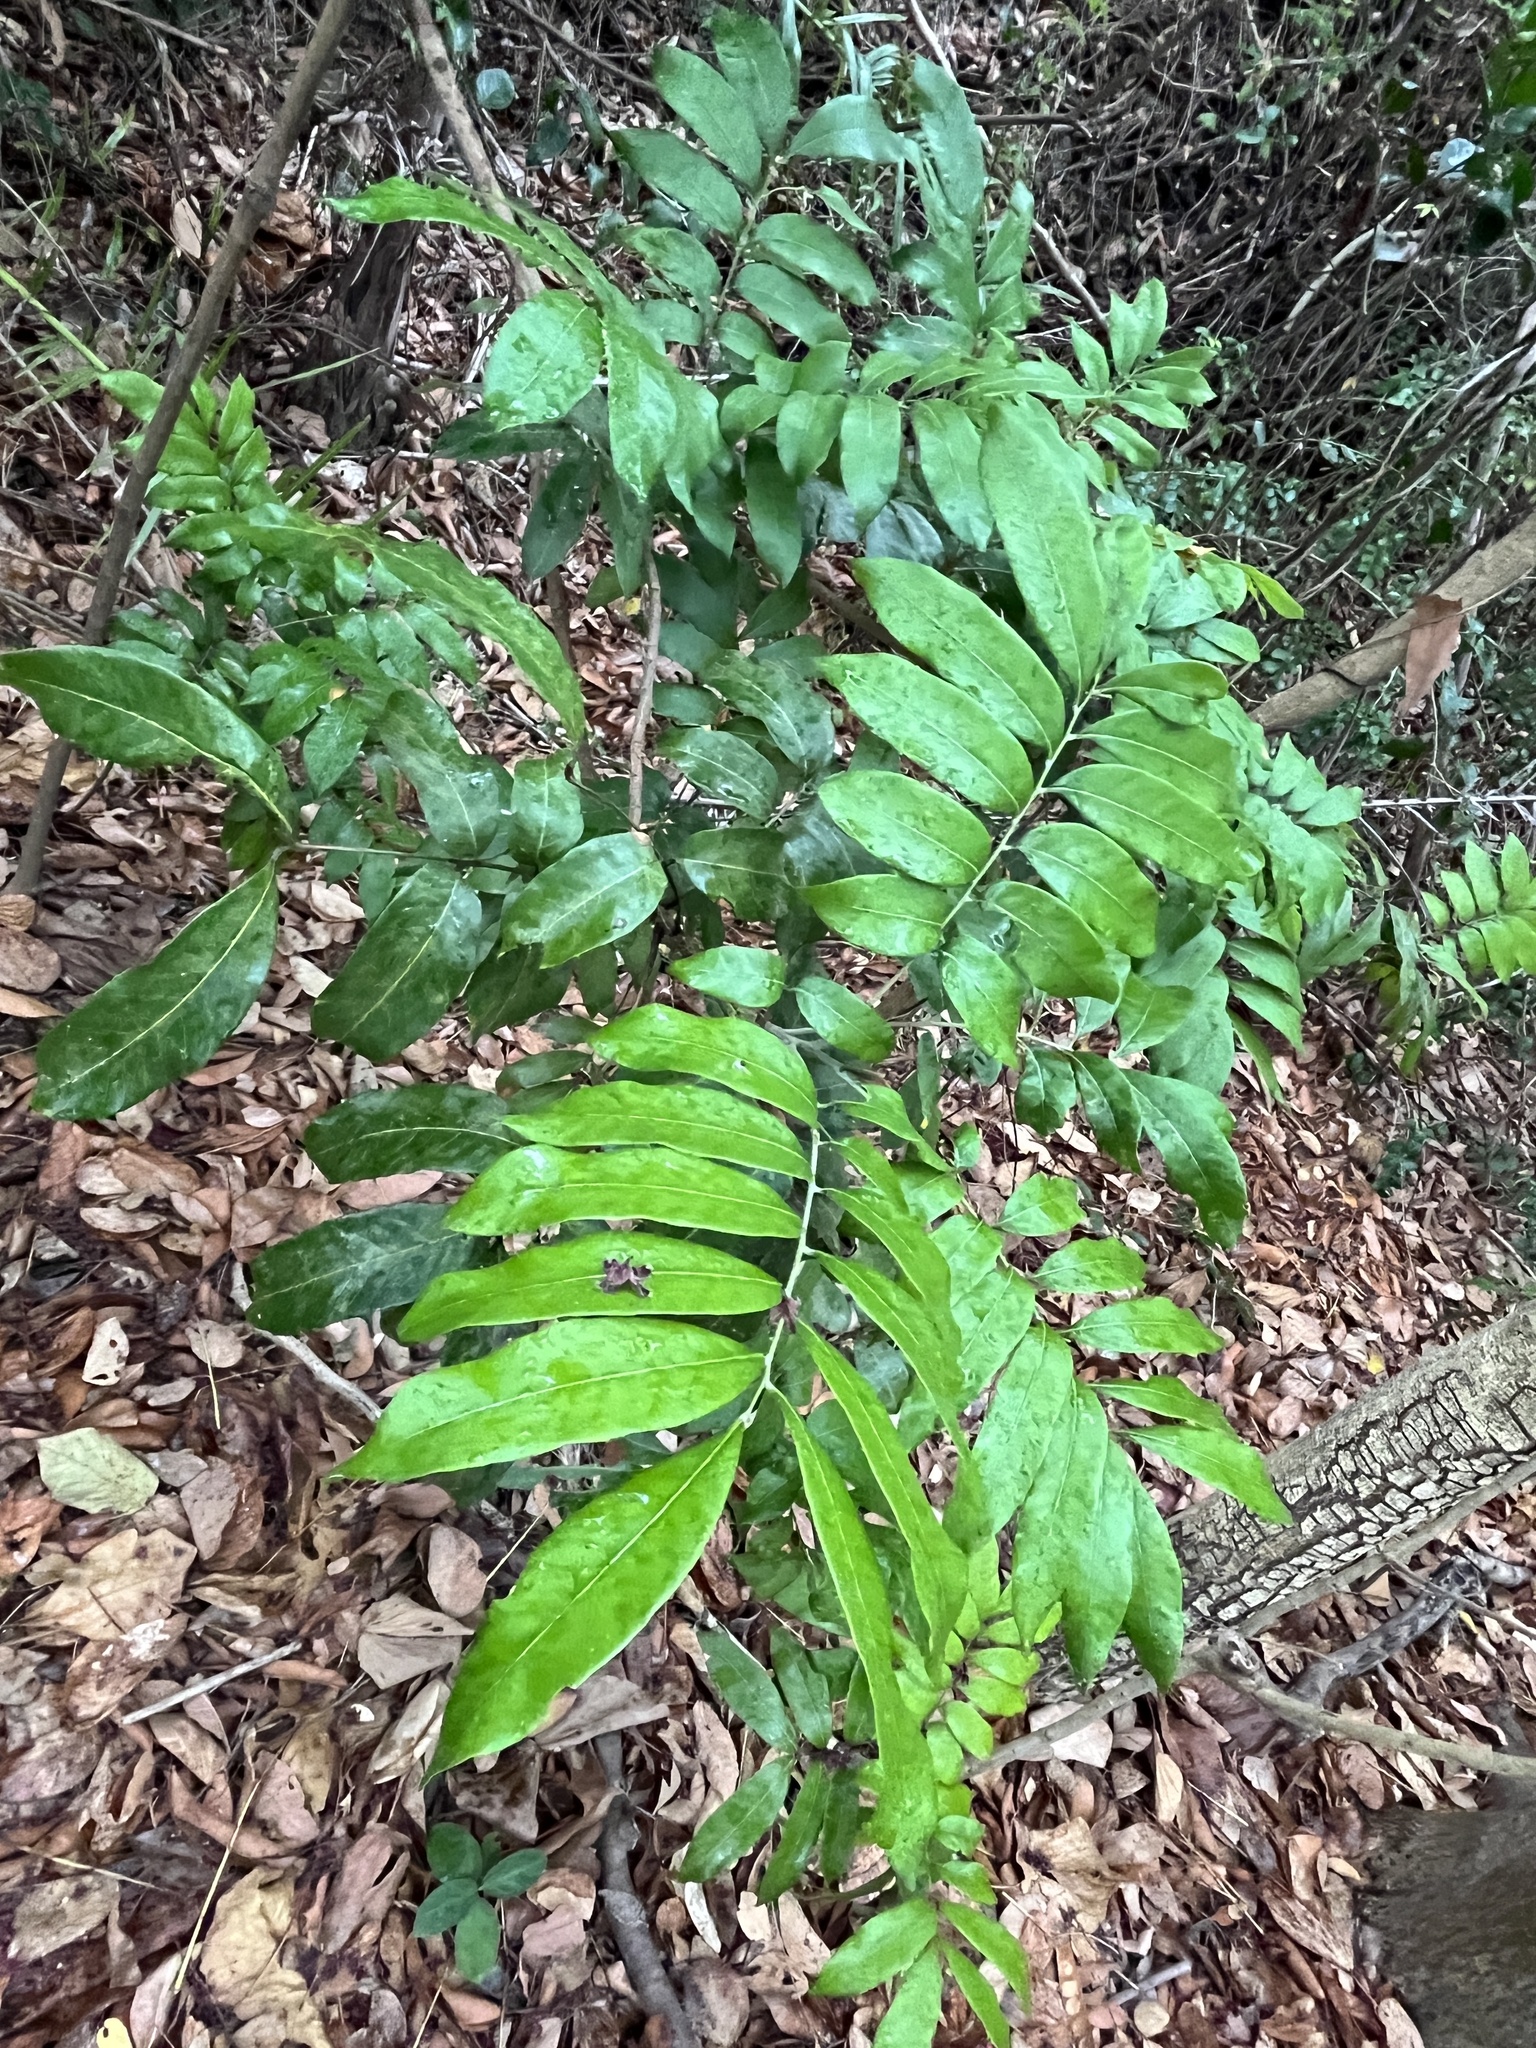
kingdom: Plantae
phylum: Tracheophyta
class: Magnoliopsida
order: Sapindales
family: Sapindaceae
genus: Dimocarpus
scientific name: Dimocarpus longan
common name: Longan
